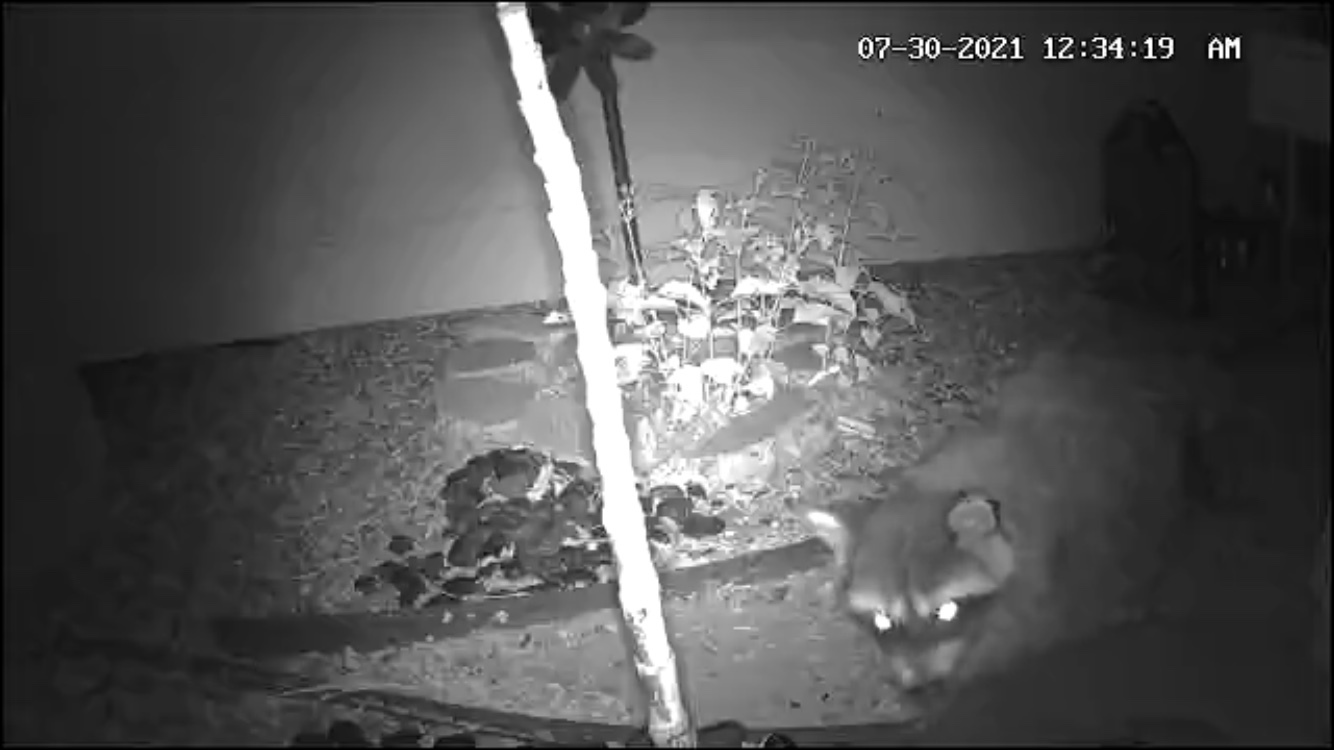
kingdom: Animalia
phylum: Chordata
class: Mammalia
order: Carnivora
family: Procyonidae
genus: Procyon
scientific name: Procyon lotor
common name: Raccoon
